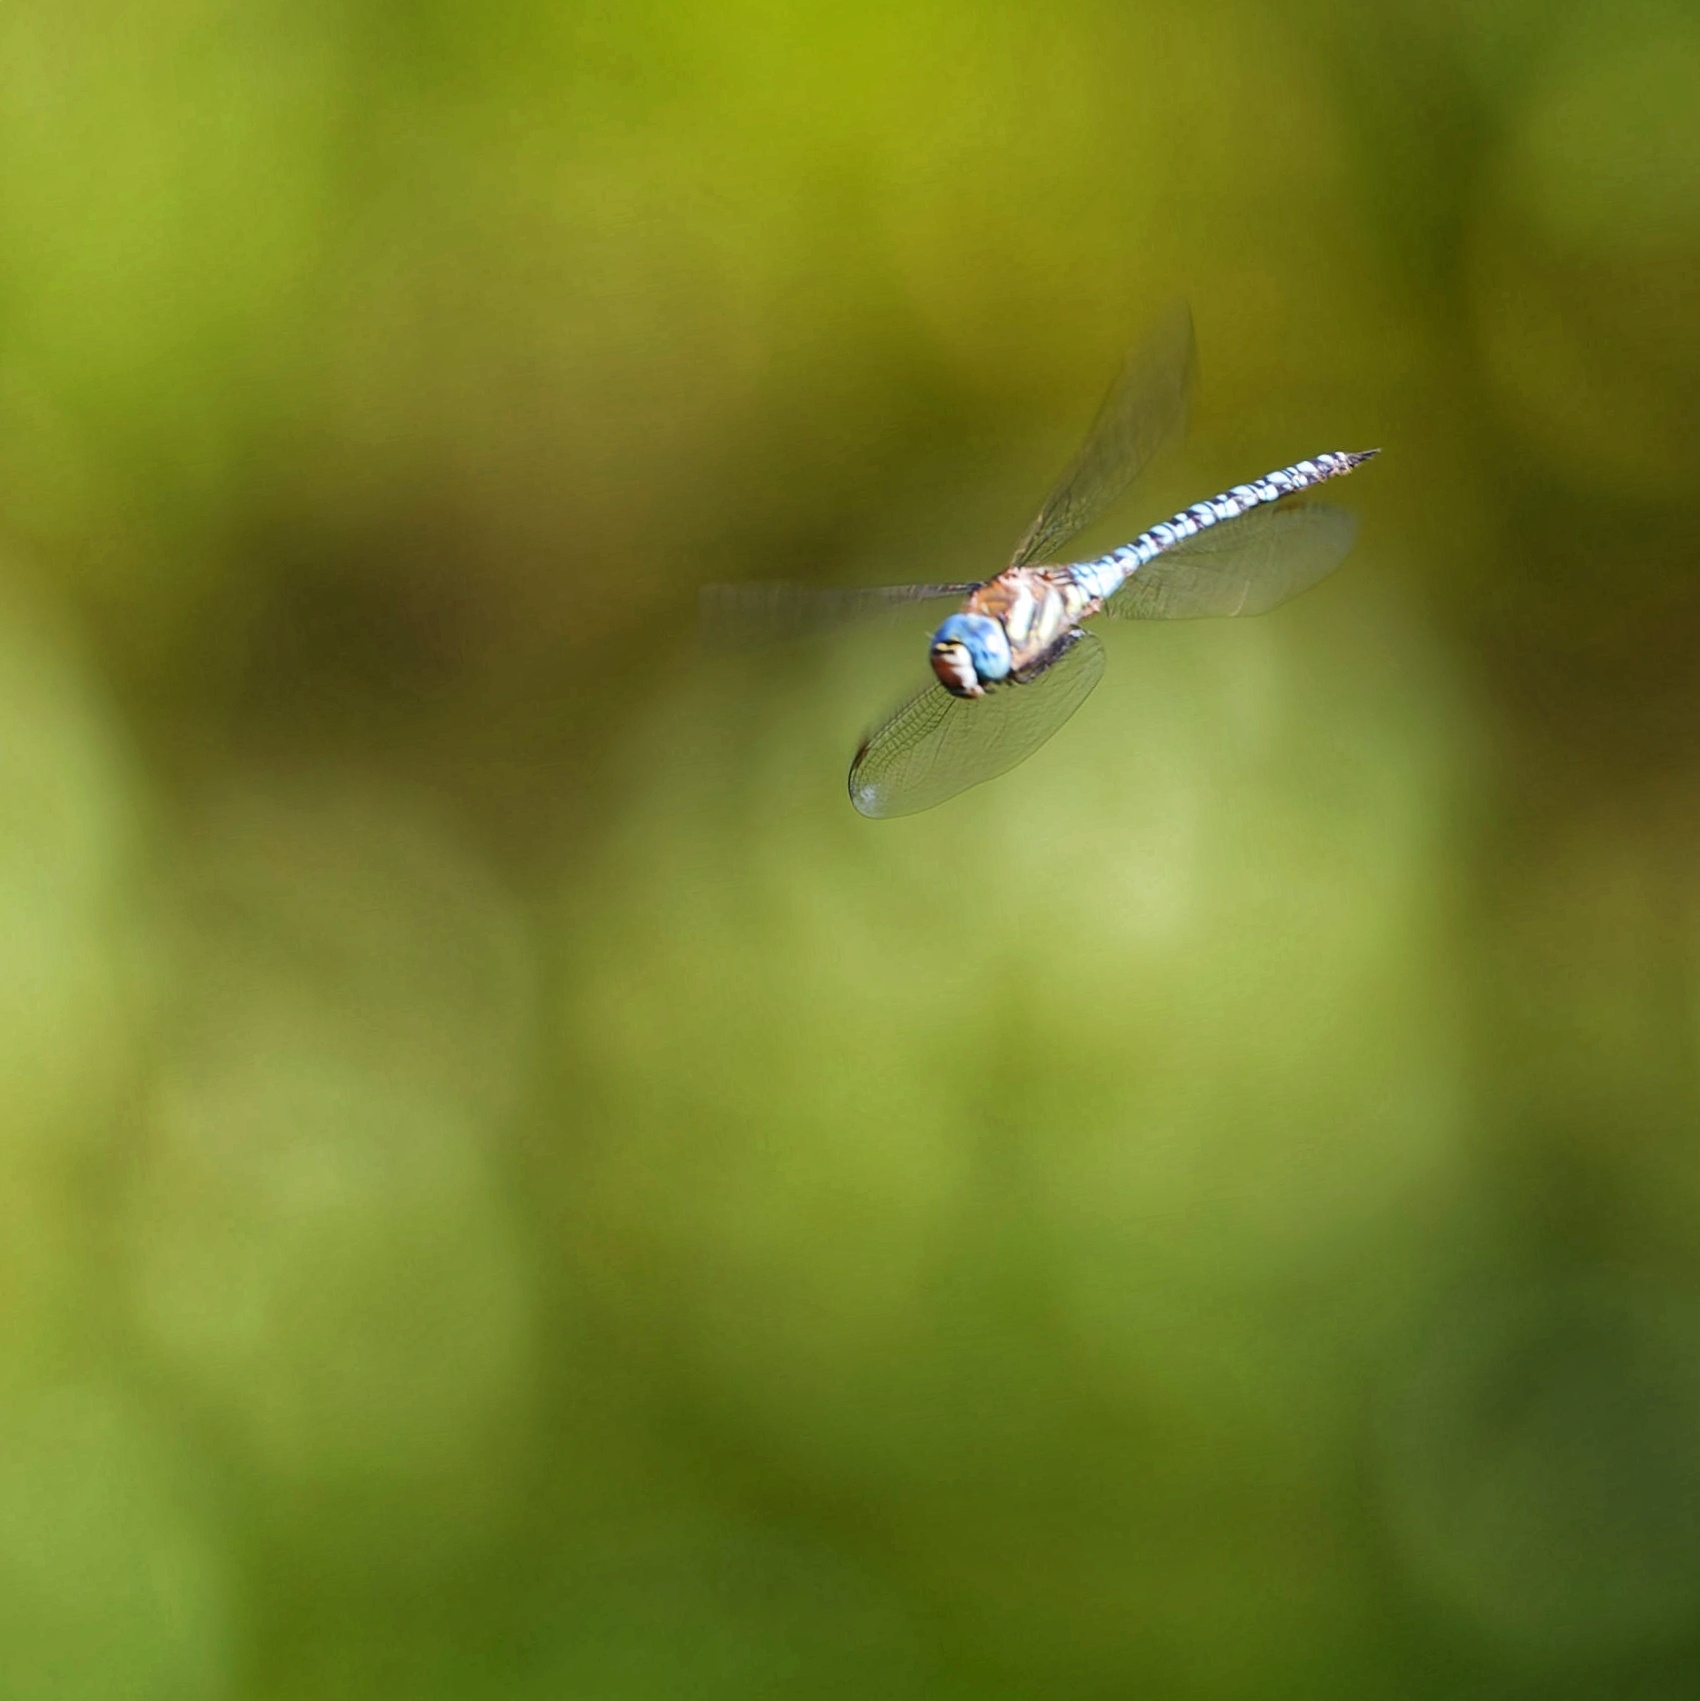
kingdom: Animalia
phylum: Arthropoda
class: Insecta
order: Odonata
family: Aeshnidae
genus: Aeshna
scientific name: Aeshna soneharai
